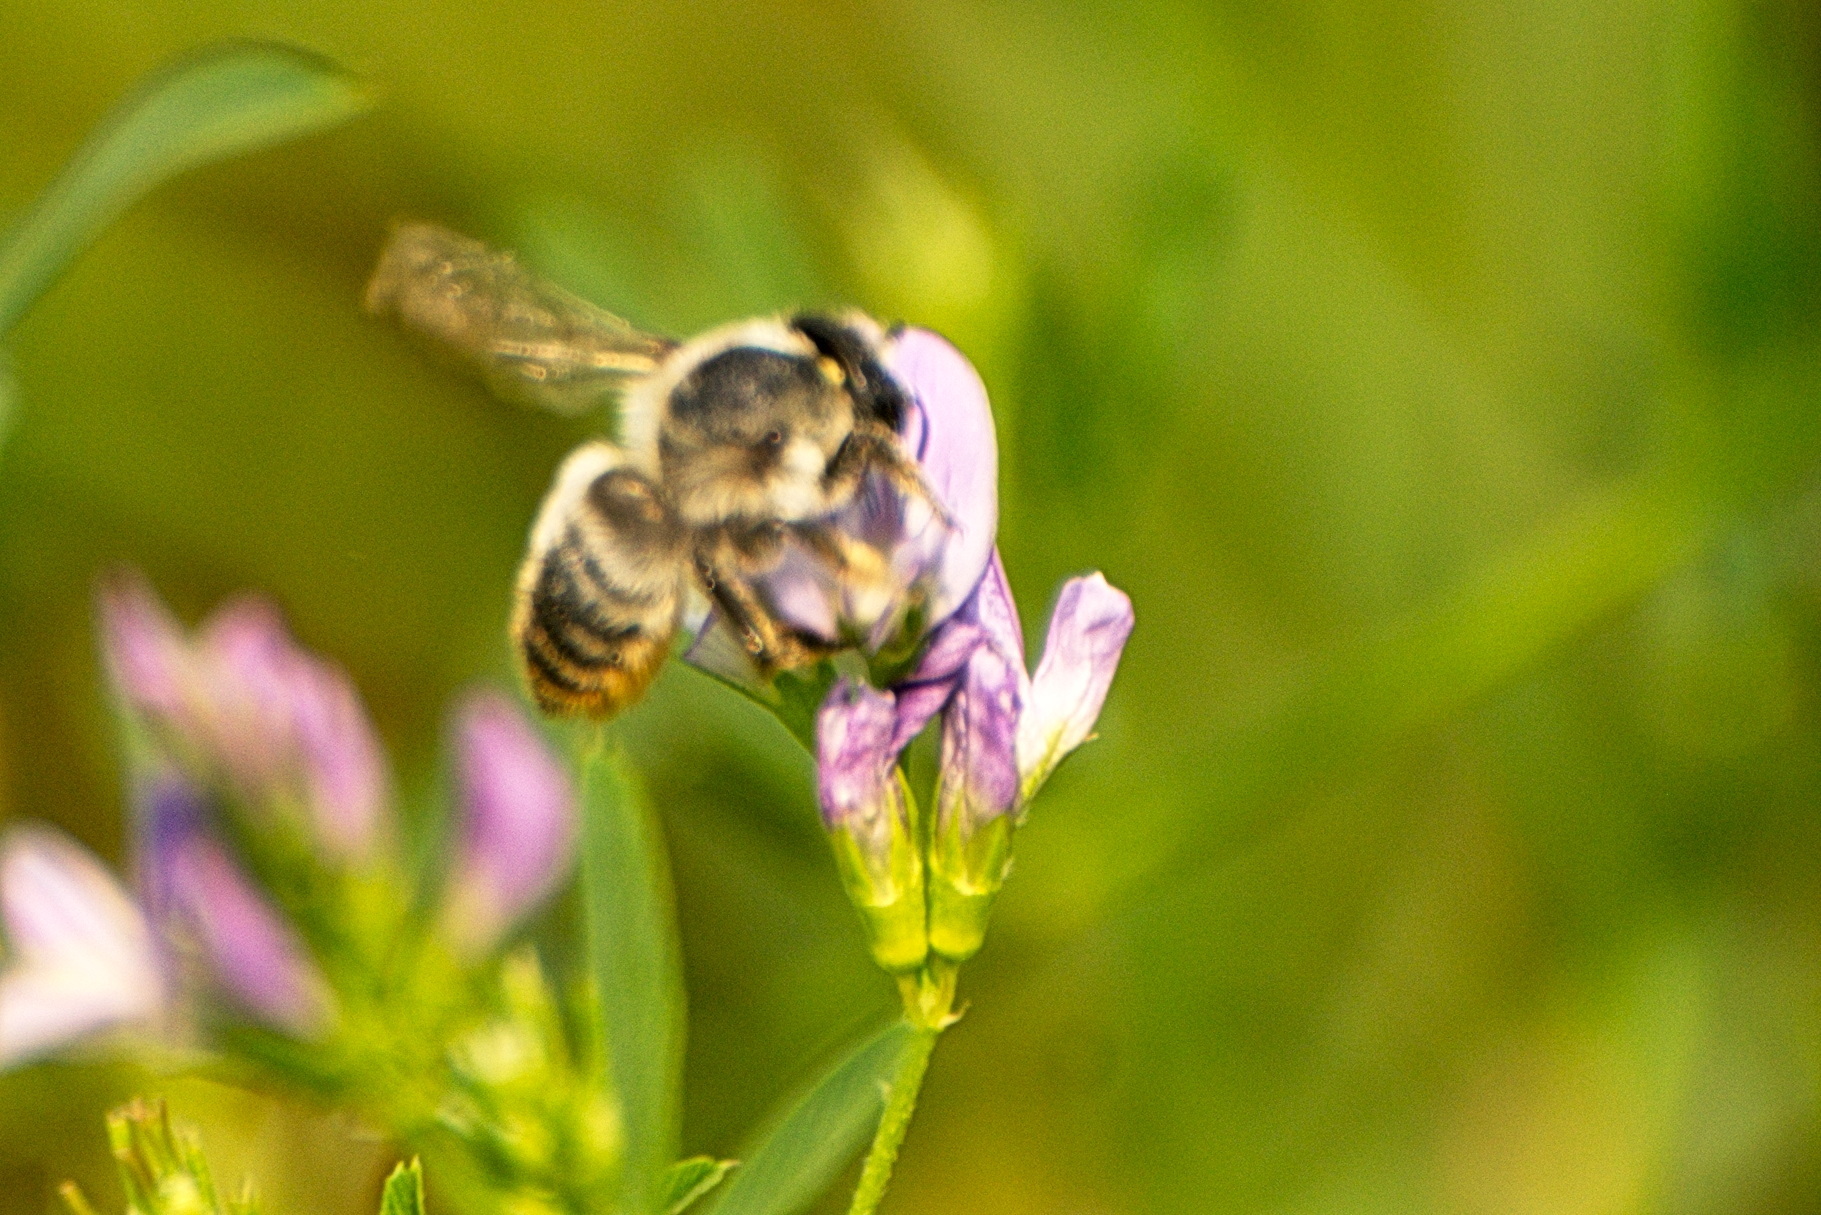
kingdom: Animalia
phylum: Arthropoda
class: Insecta
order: Hymenoptera
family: Megachilidae
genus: Xanthosarus
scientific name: Xanthosarus
